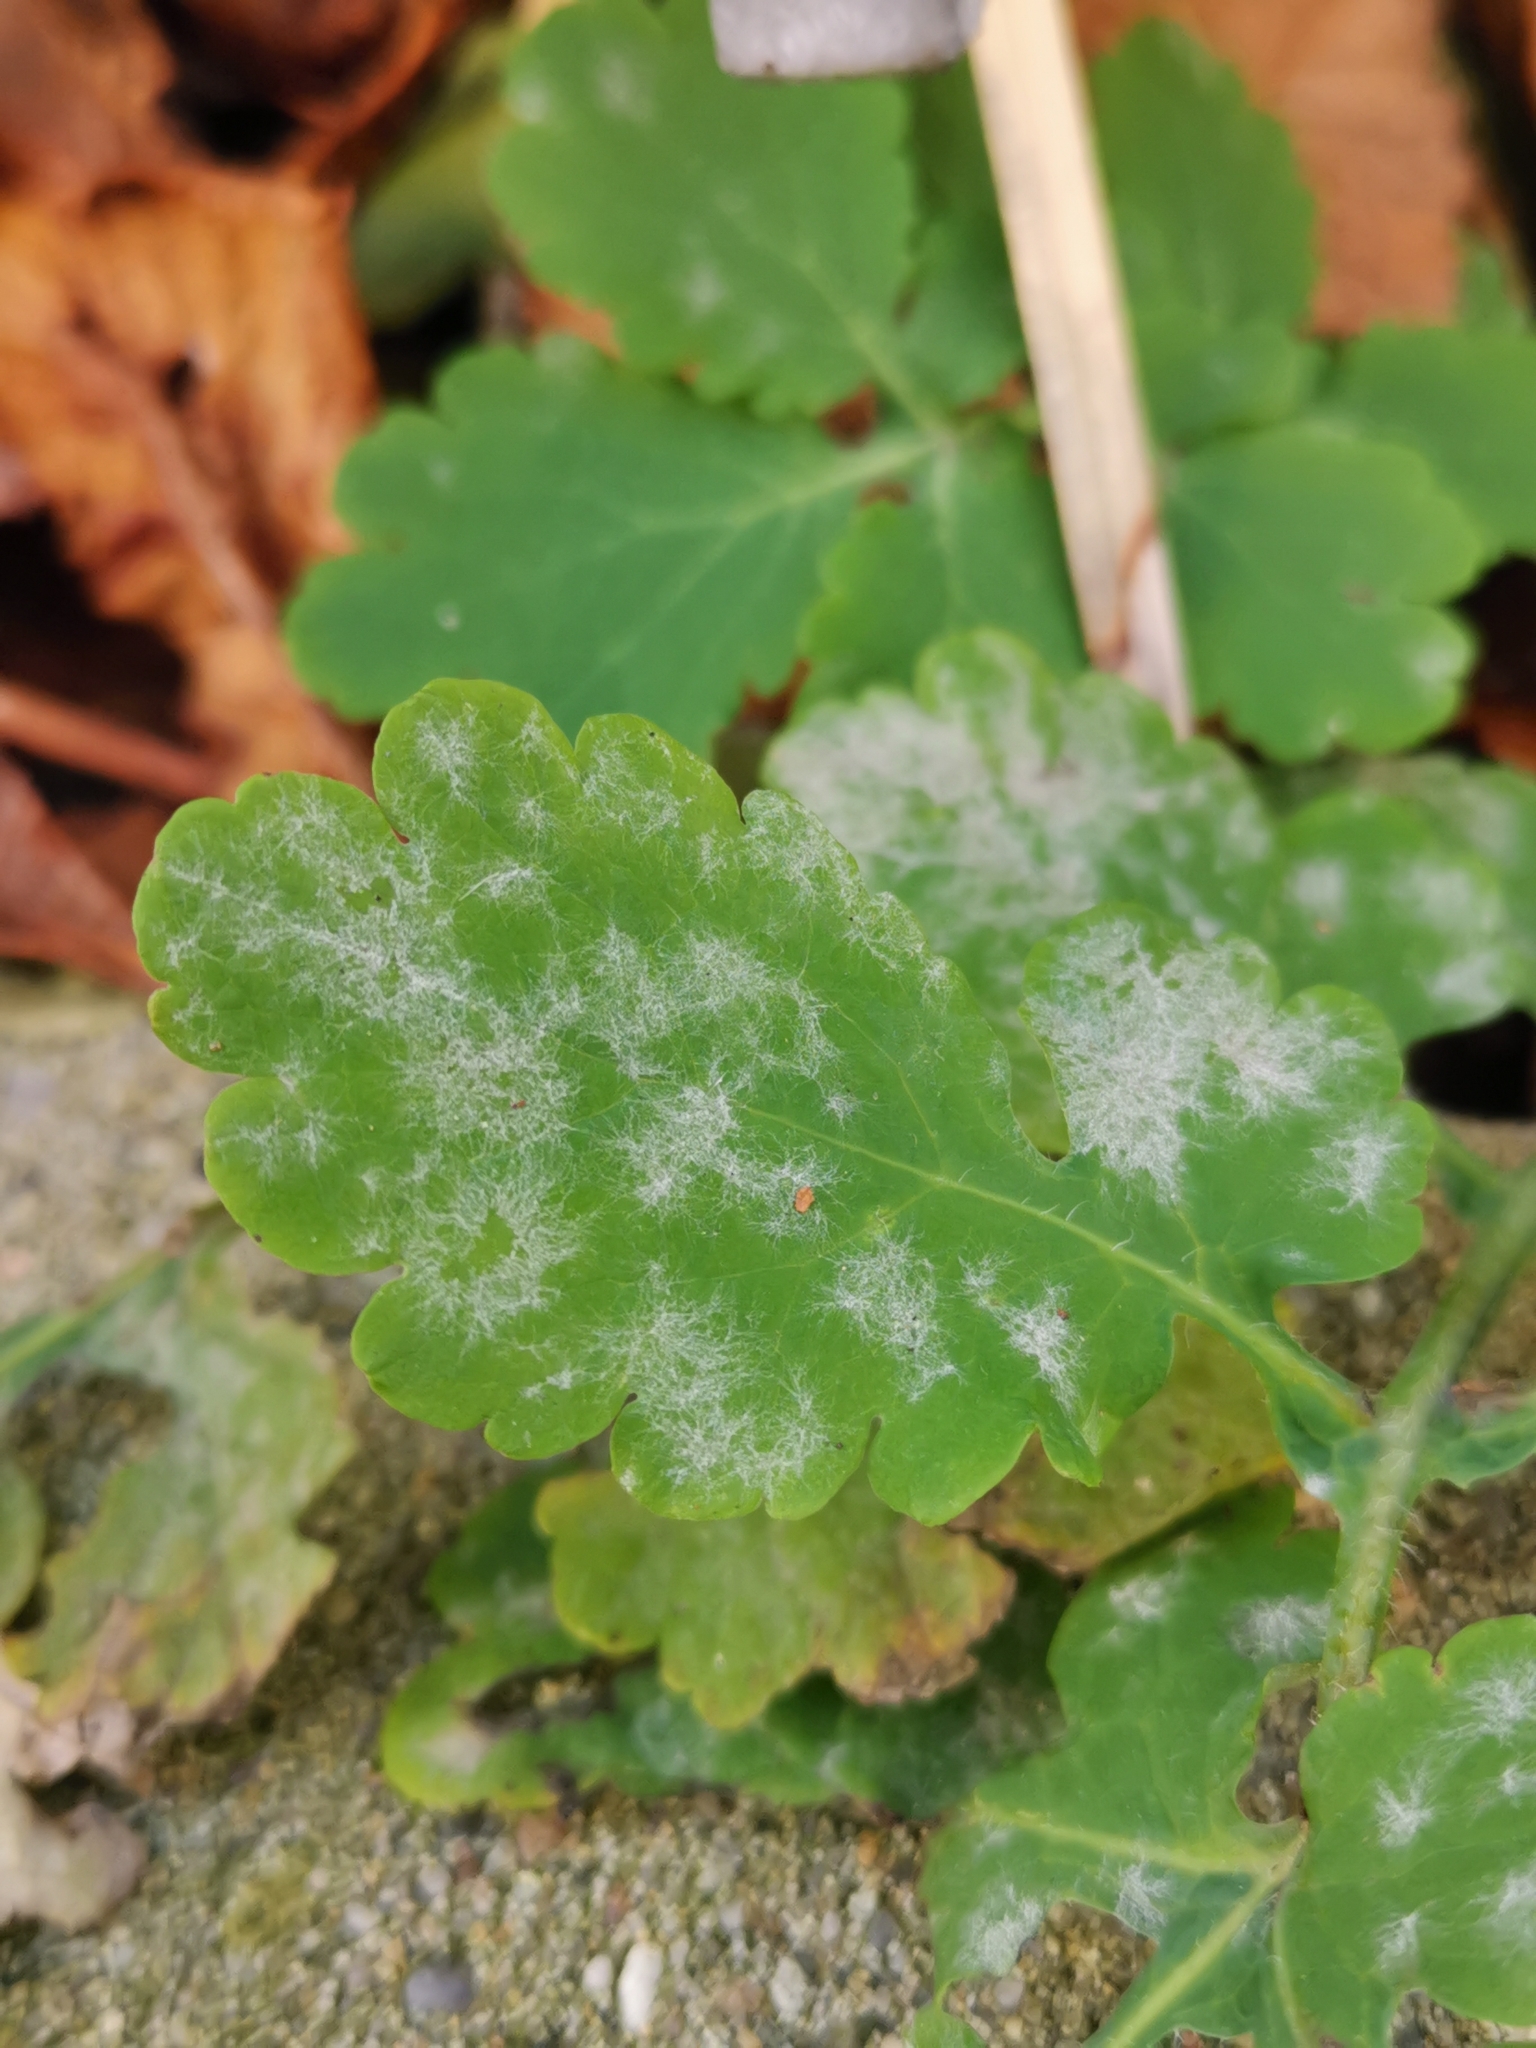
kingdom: Fungi
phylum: Ascomycota
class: Leotiomycetes
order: Helotiales
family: Erysiphaceae
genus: Erysiphe
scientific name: Erysiphe macleayae
